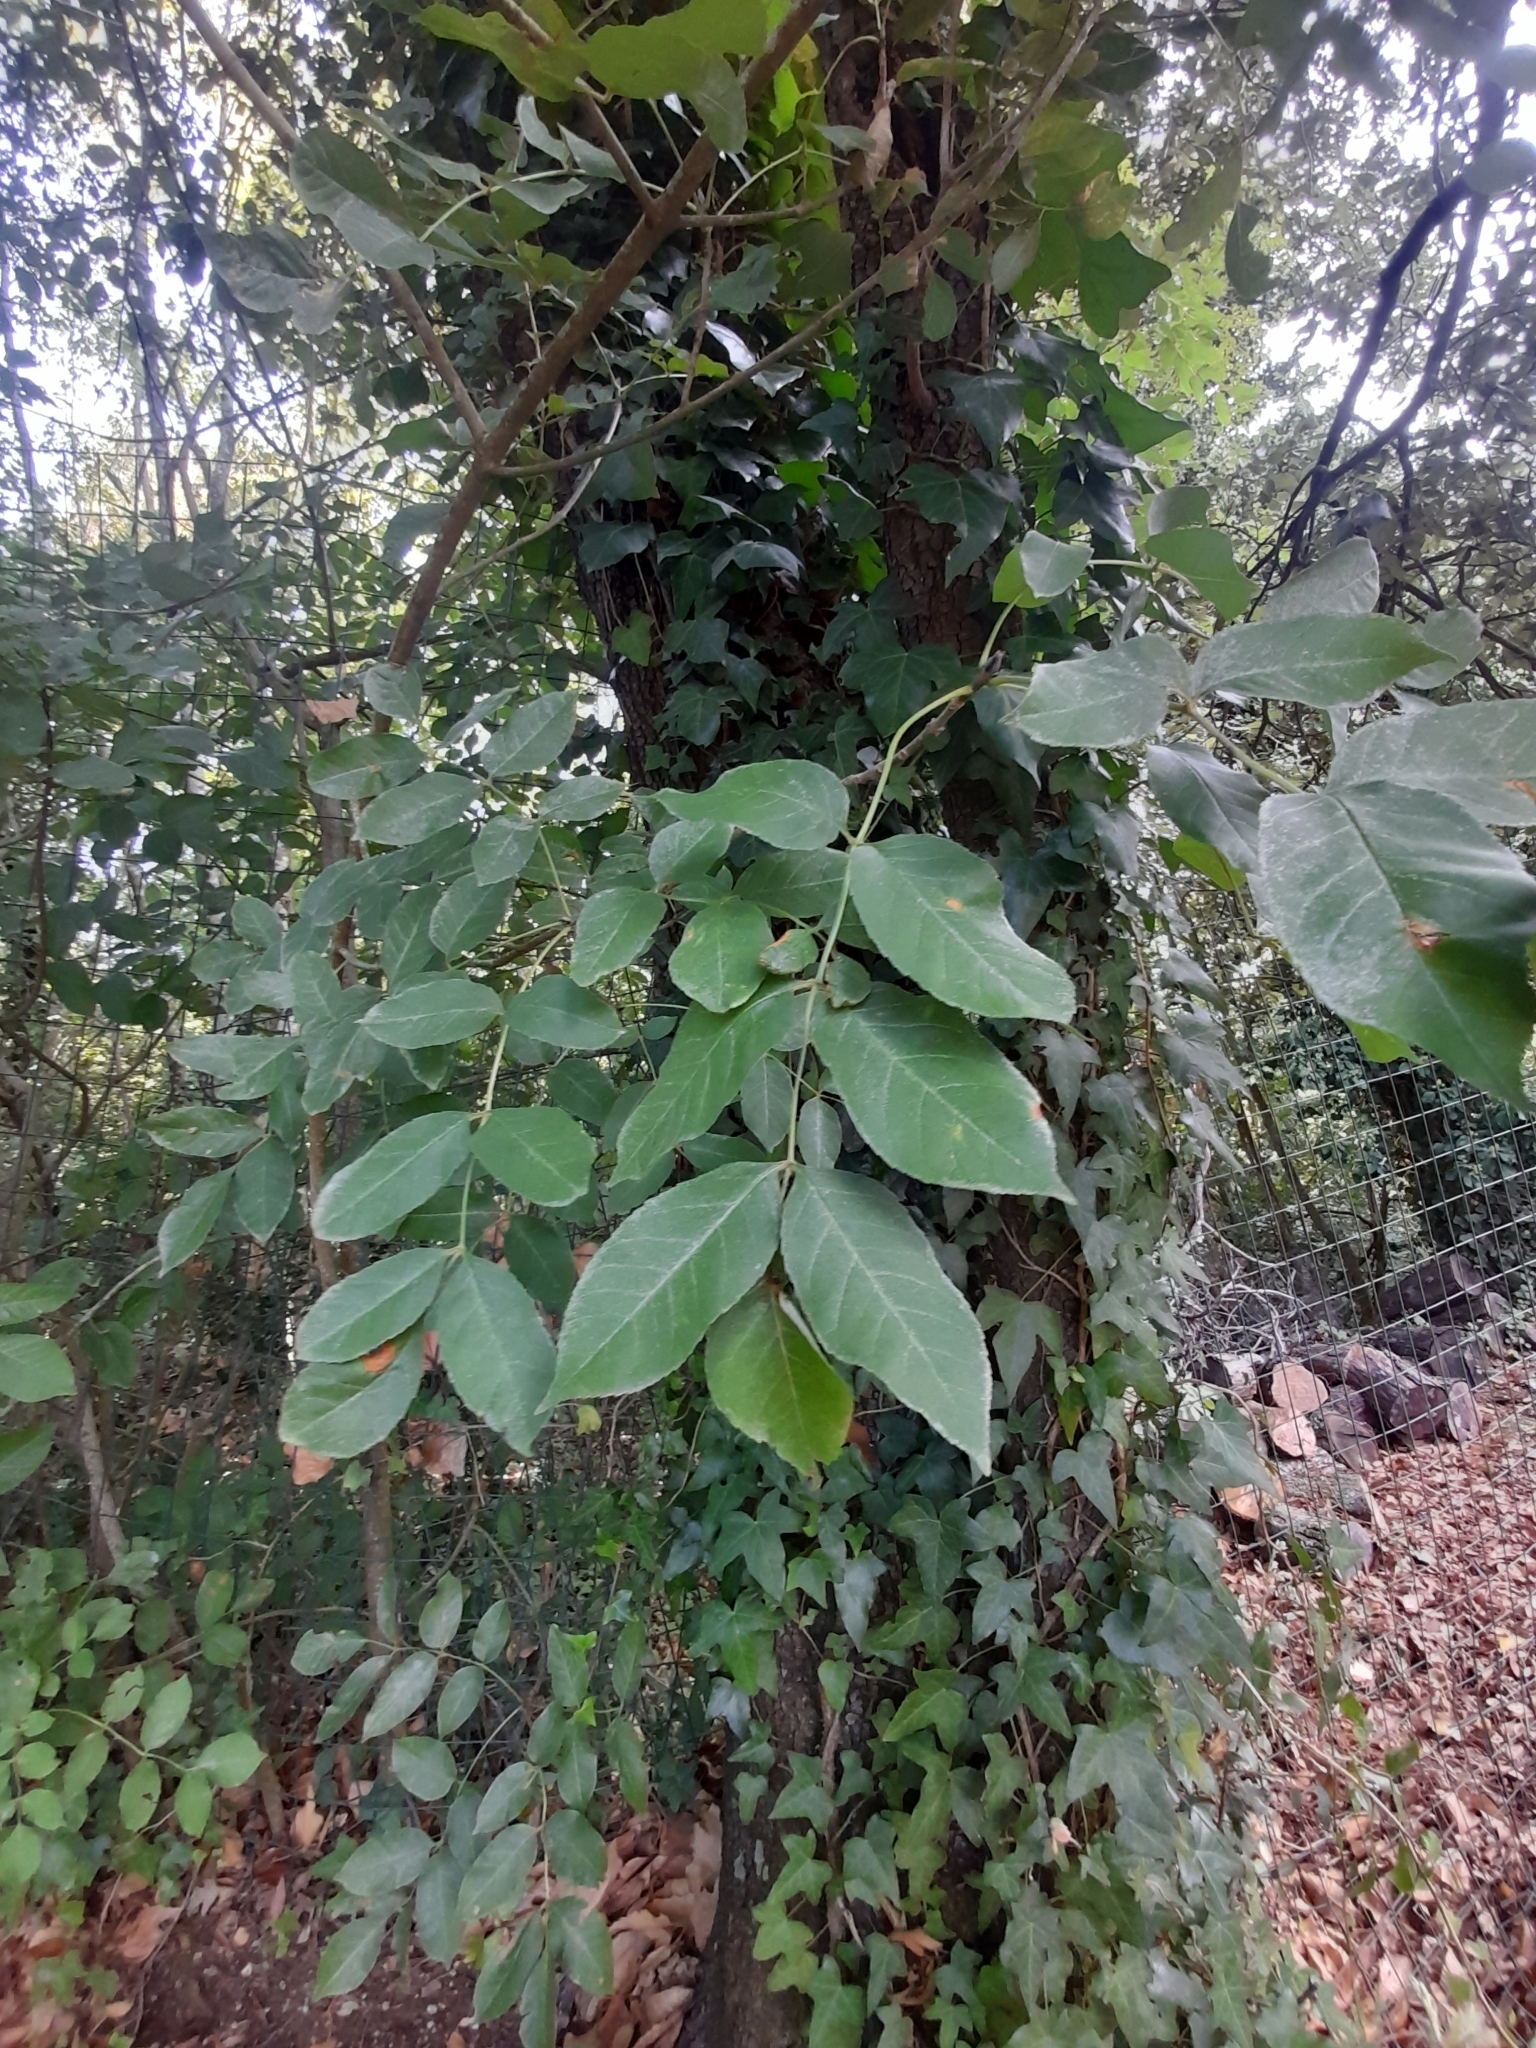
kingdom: Plantae
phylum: Tracheophyta
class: Magnoliopsida
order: Lamiales
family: Oleaceae
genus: Fraxinus
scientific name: Fraxinus ornus
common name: Manna ash
